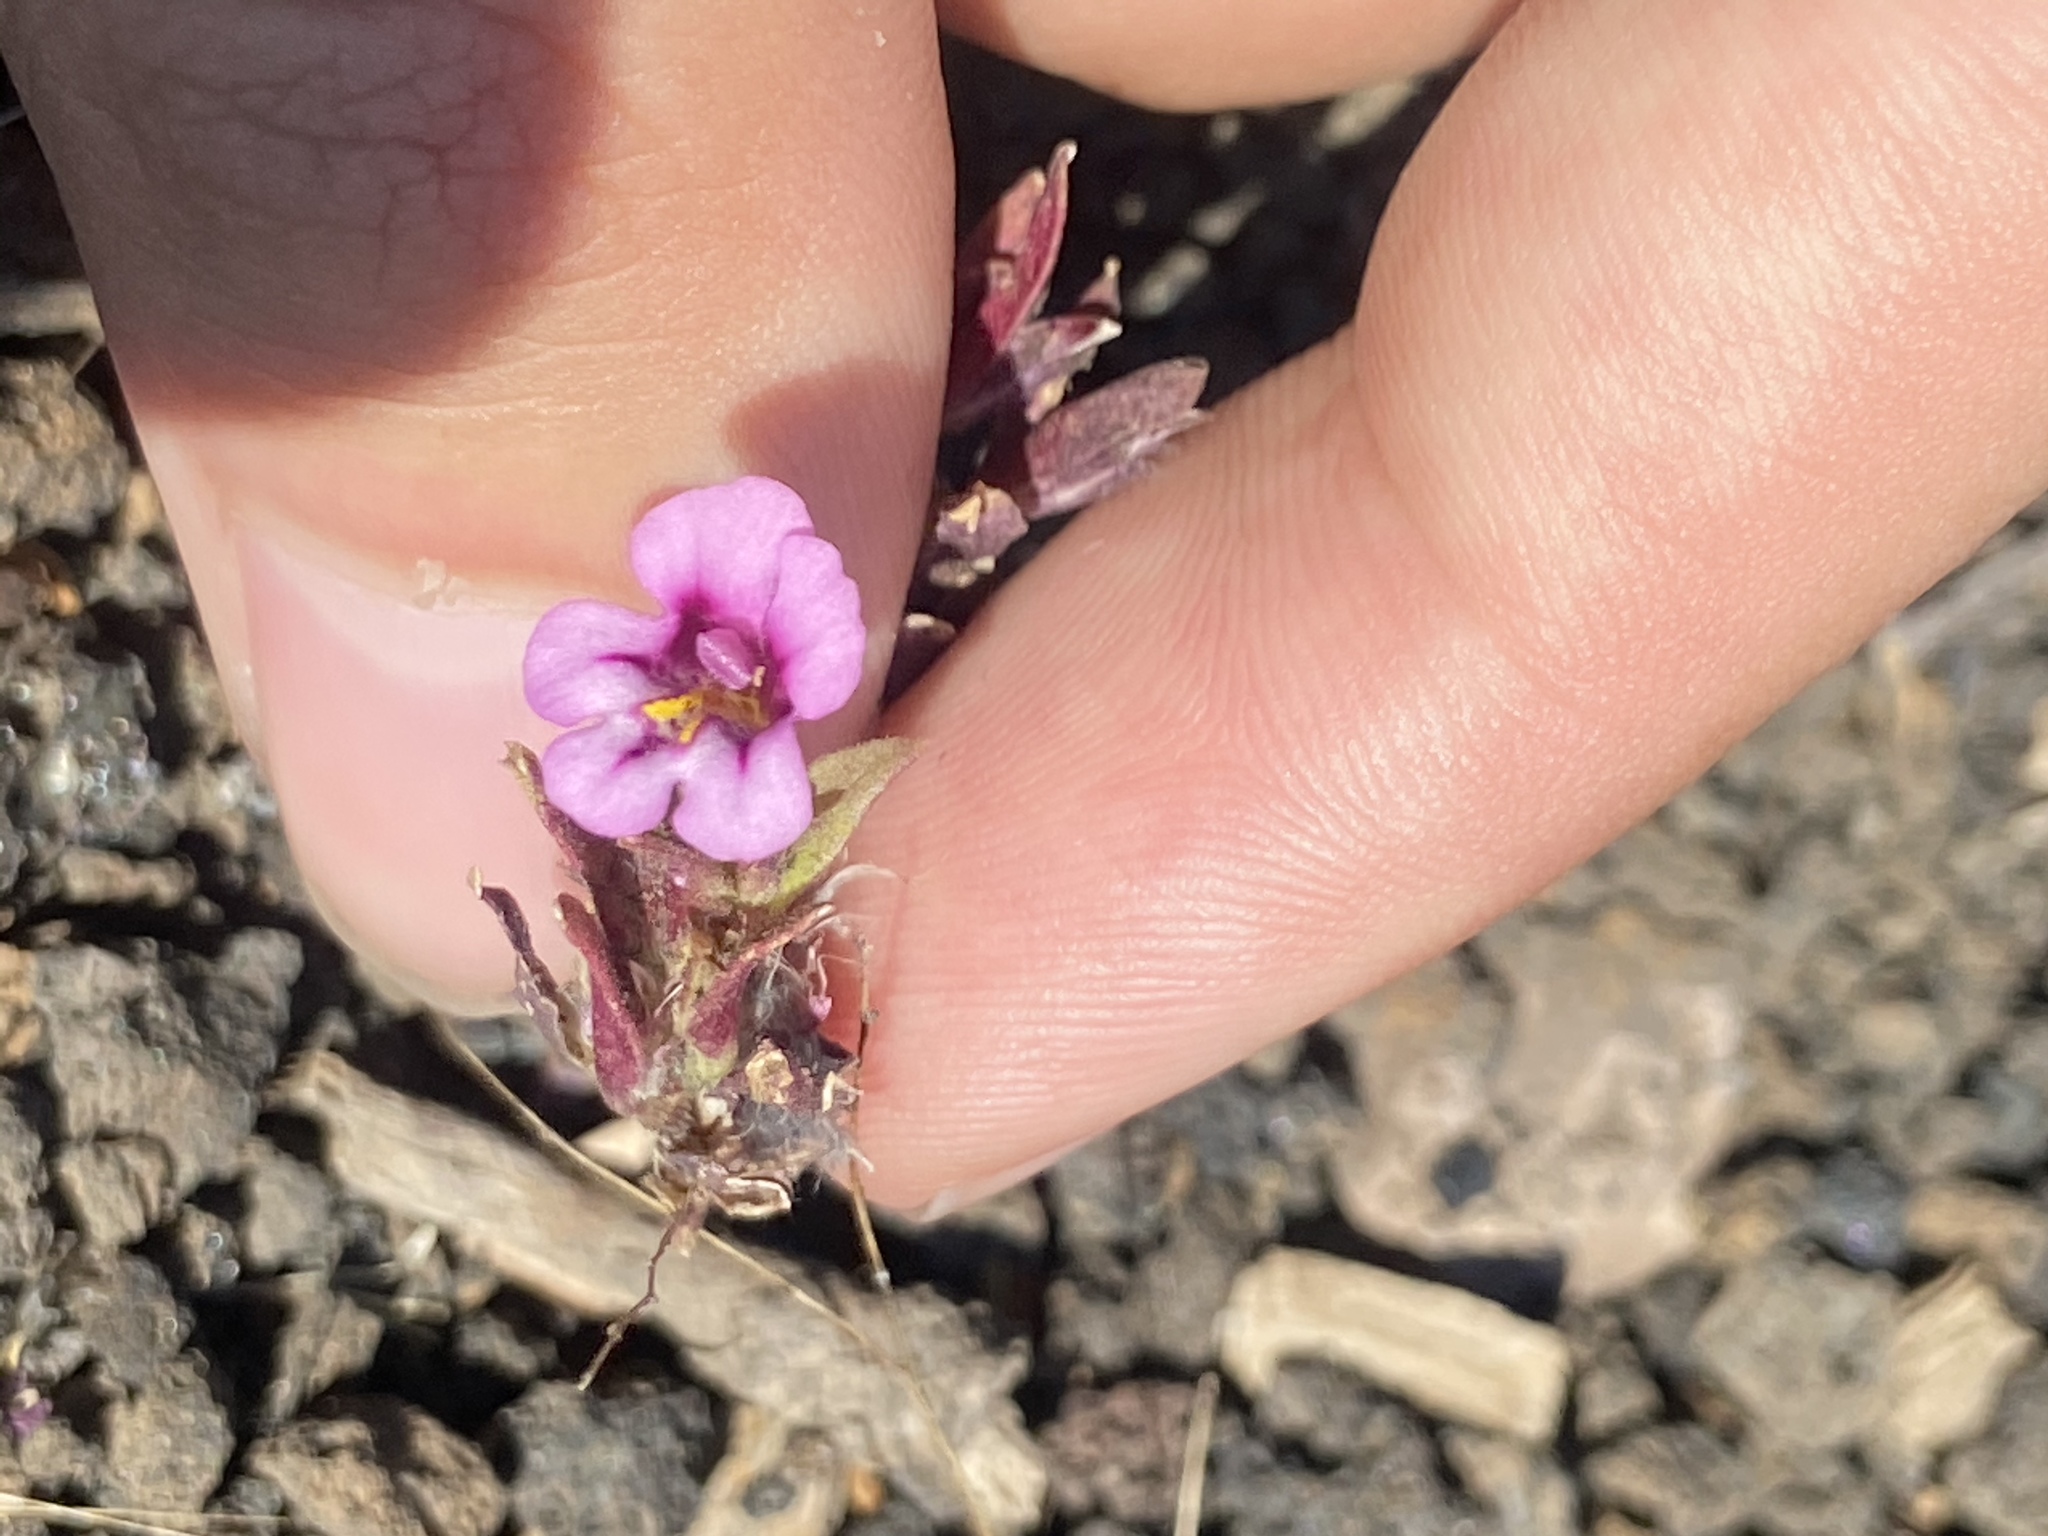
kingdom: Plantae
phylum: Tracheophyta
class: Magnoliopsida
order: Lamiales
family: Phrymaceae
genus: Diplacus
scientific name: Diplacus nanus
